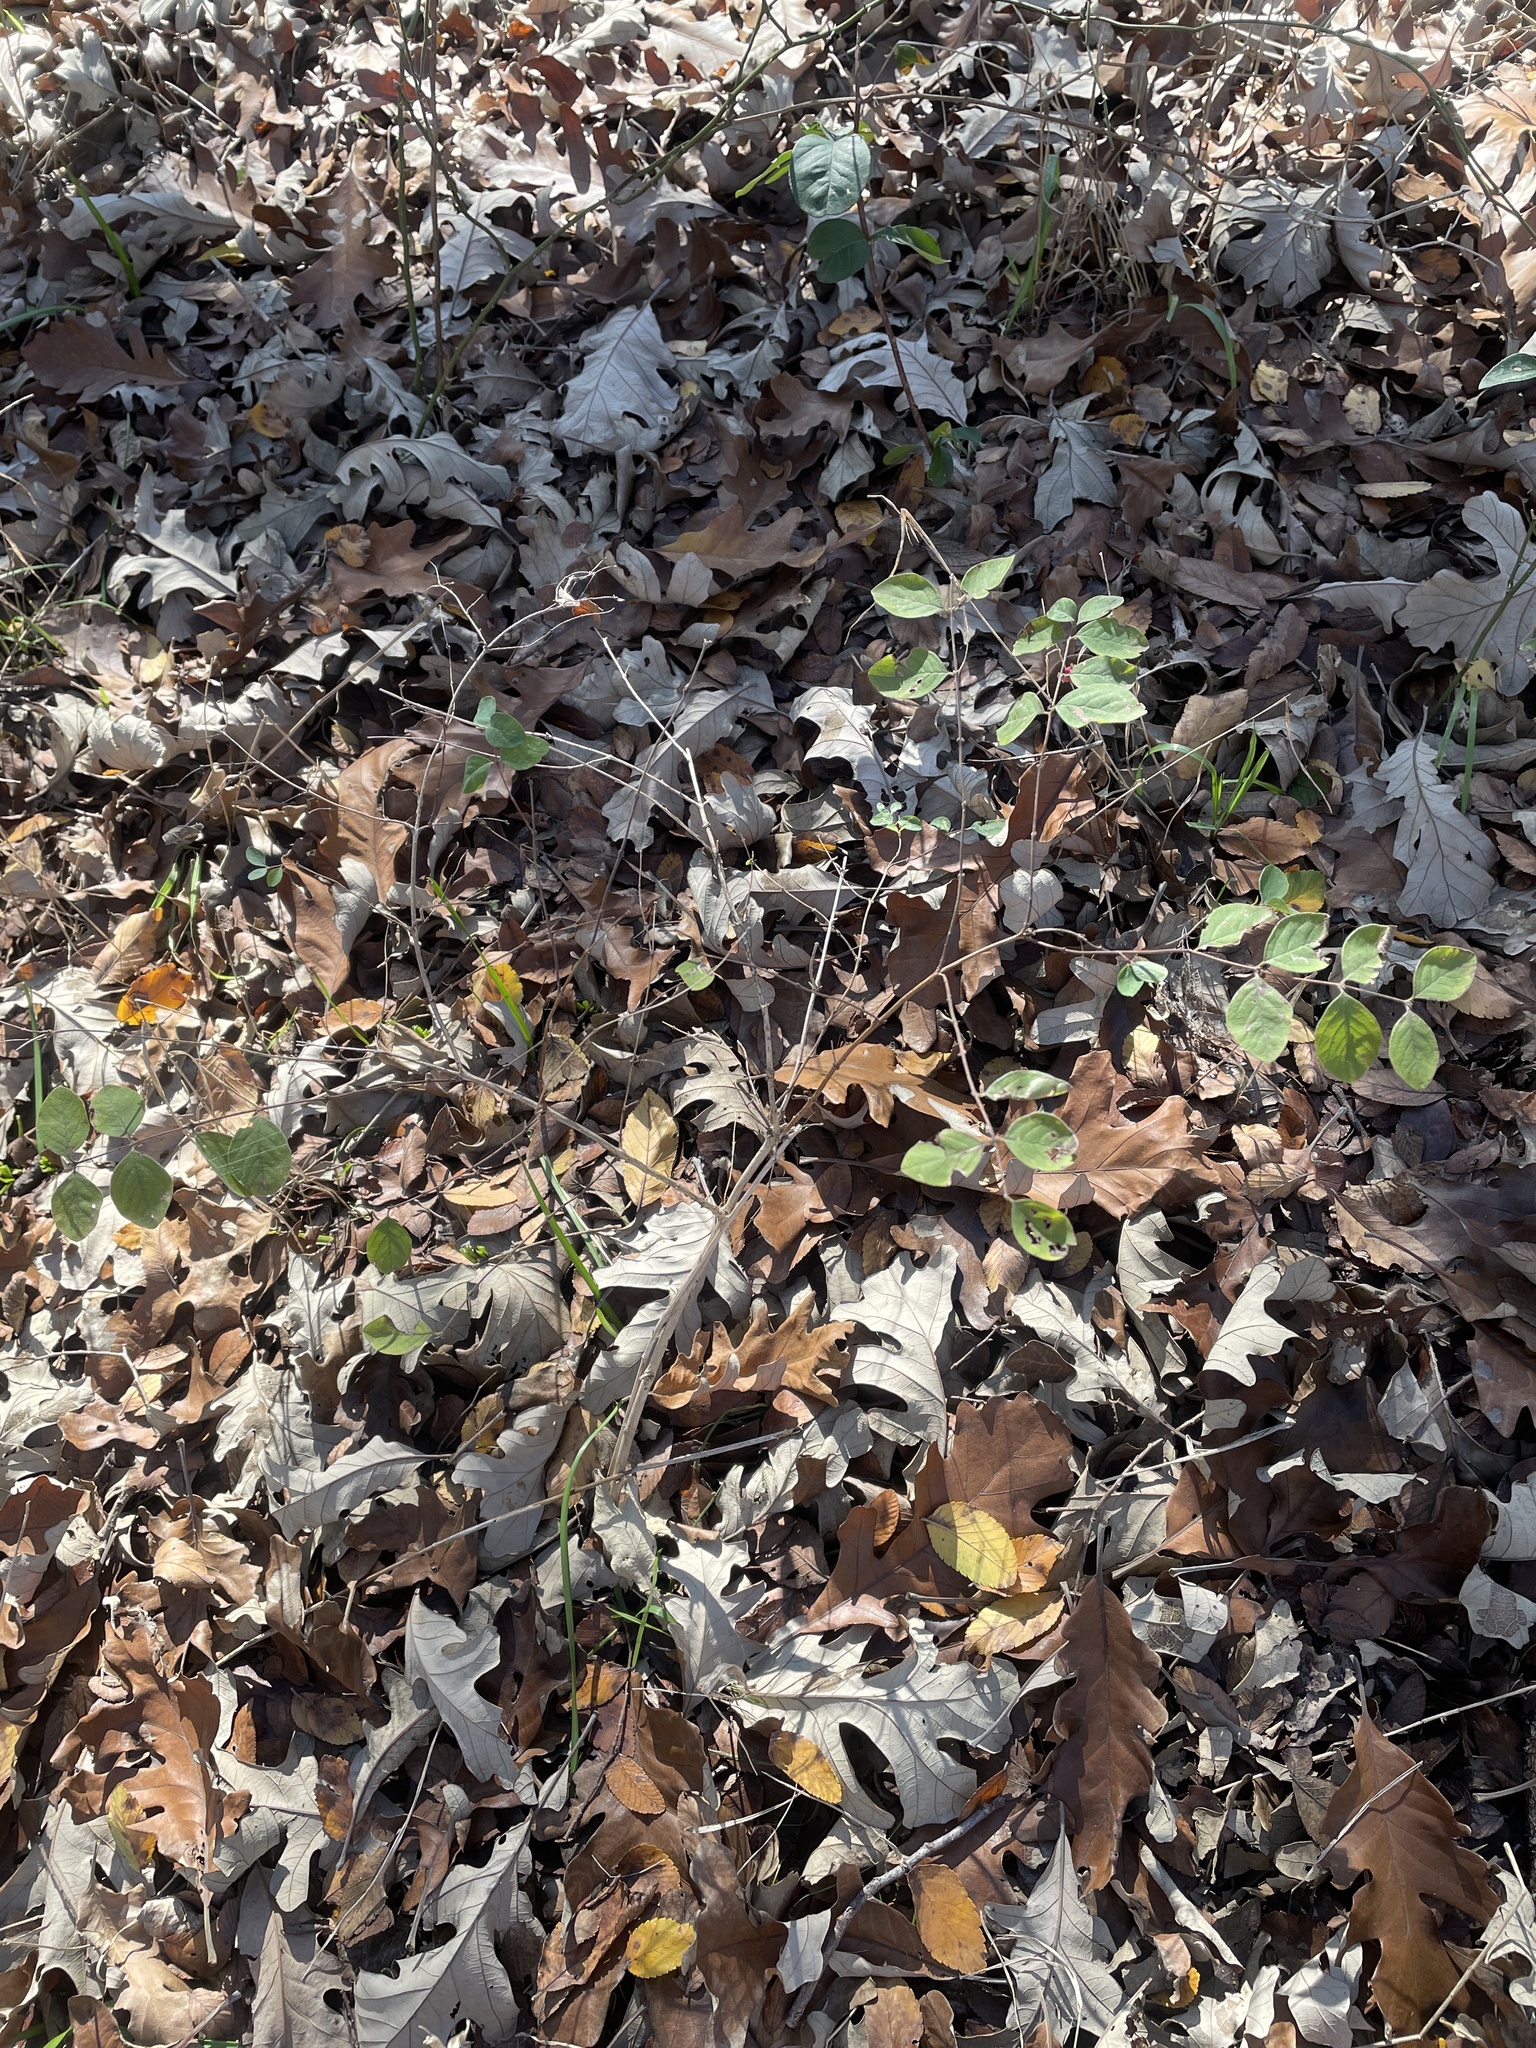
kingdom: Plantae
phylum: Tracheophyta
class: Magnoliopsida
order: Dipsacales
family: Caprifoliaceae
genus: Symphoricarpos
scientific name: Symphoricarpos orbiculatus
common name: Coralberry
